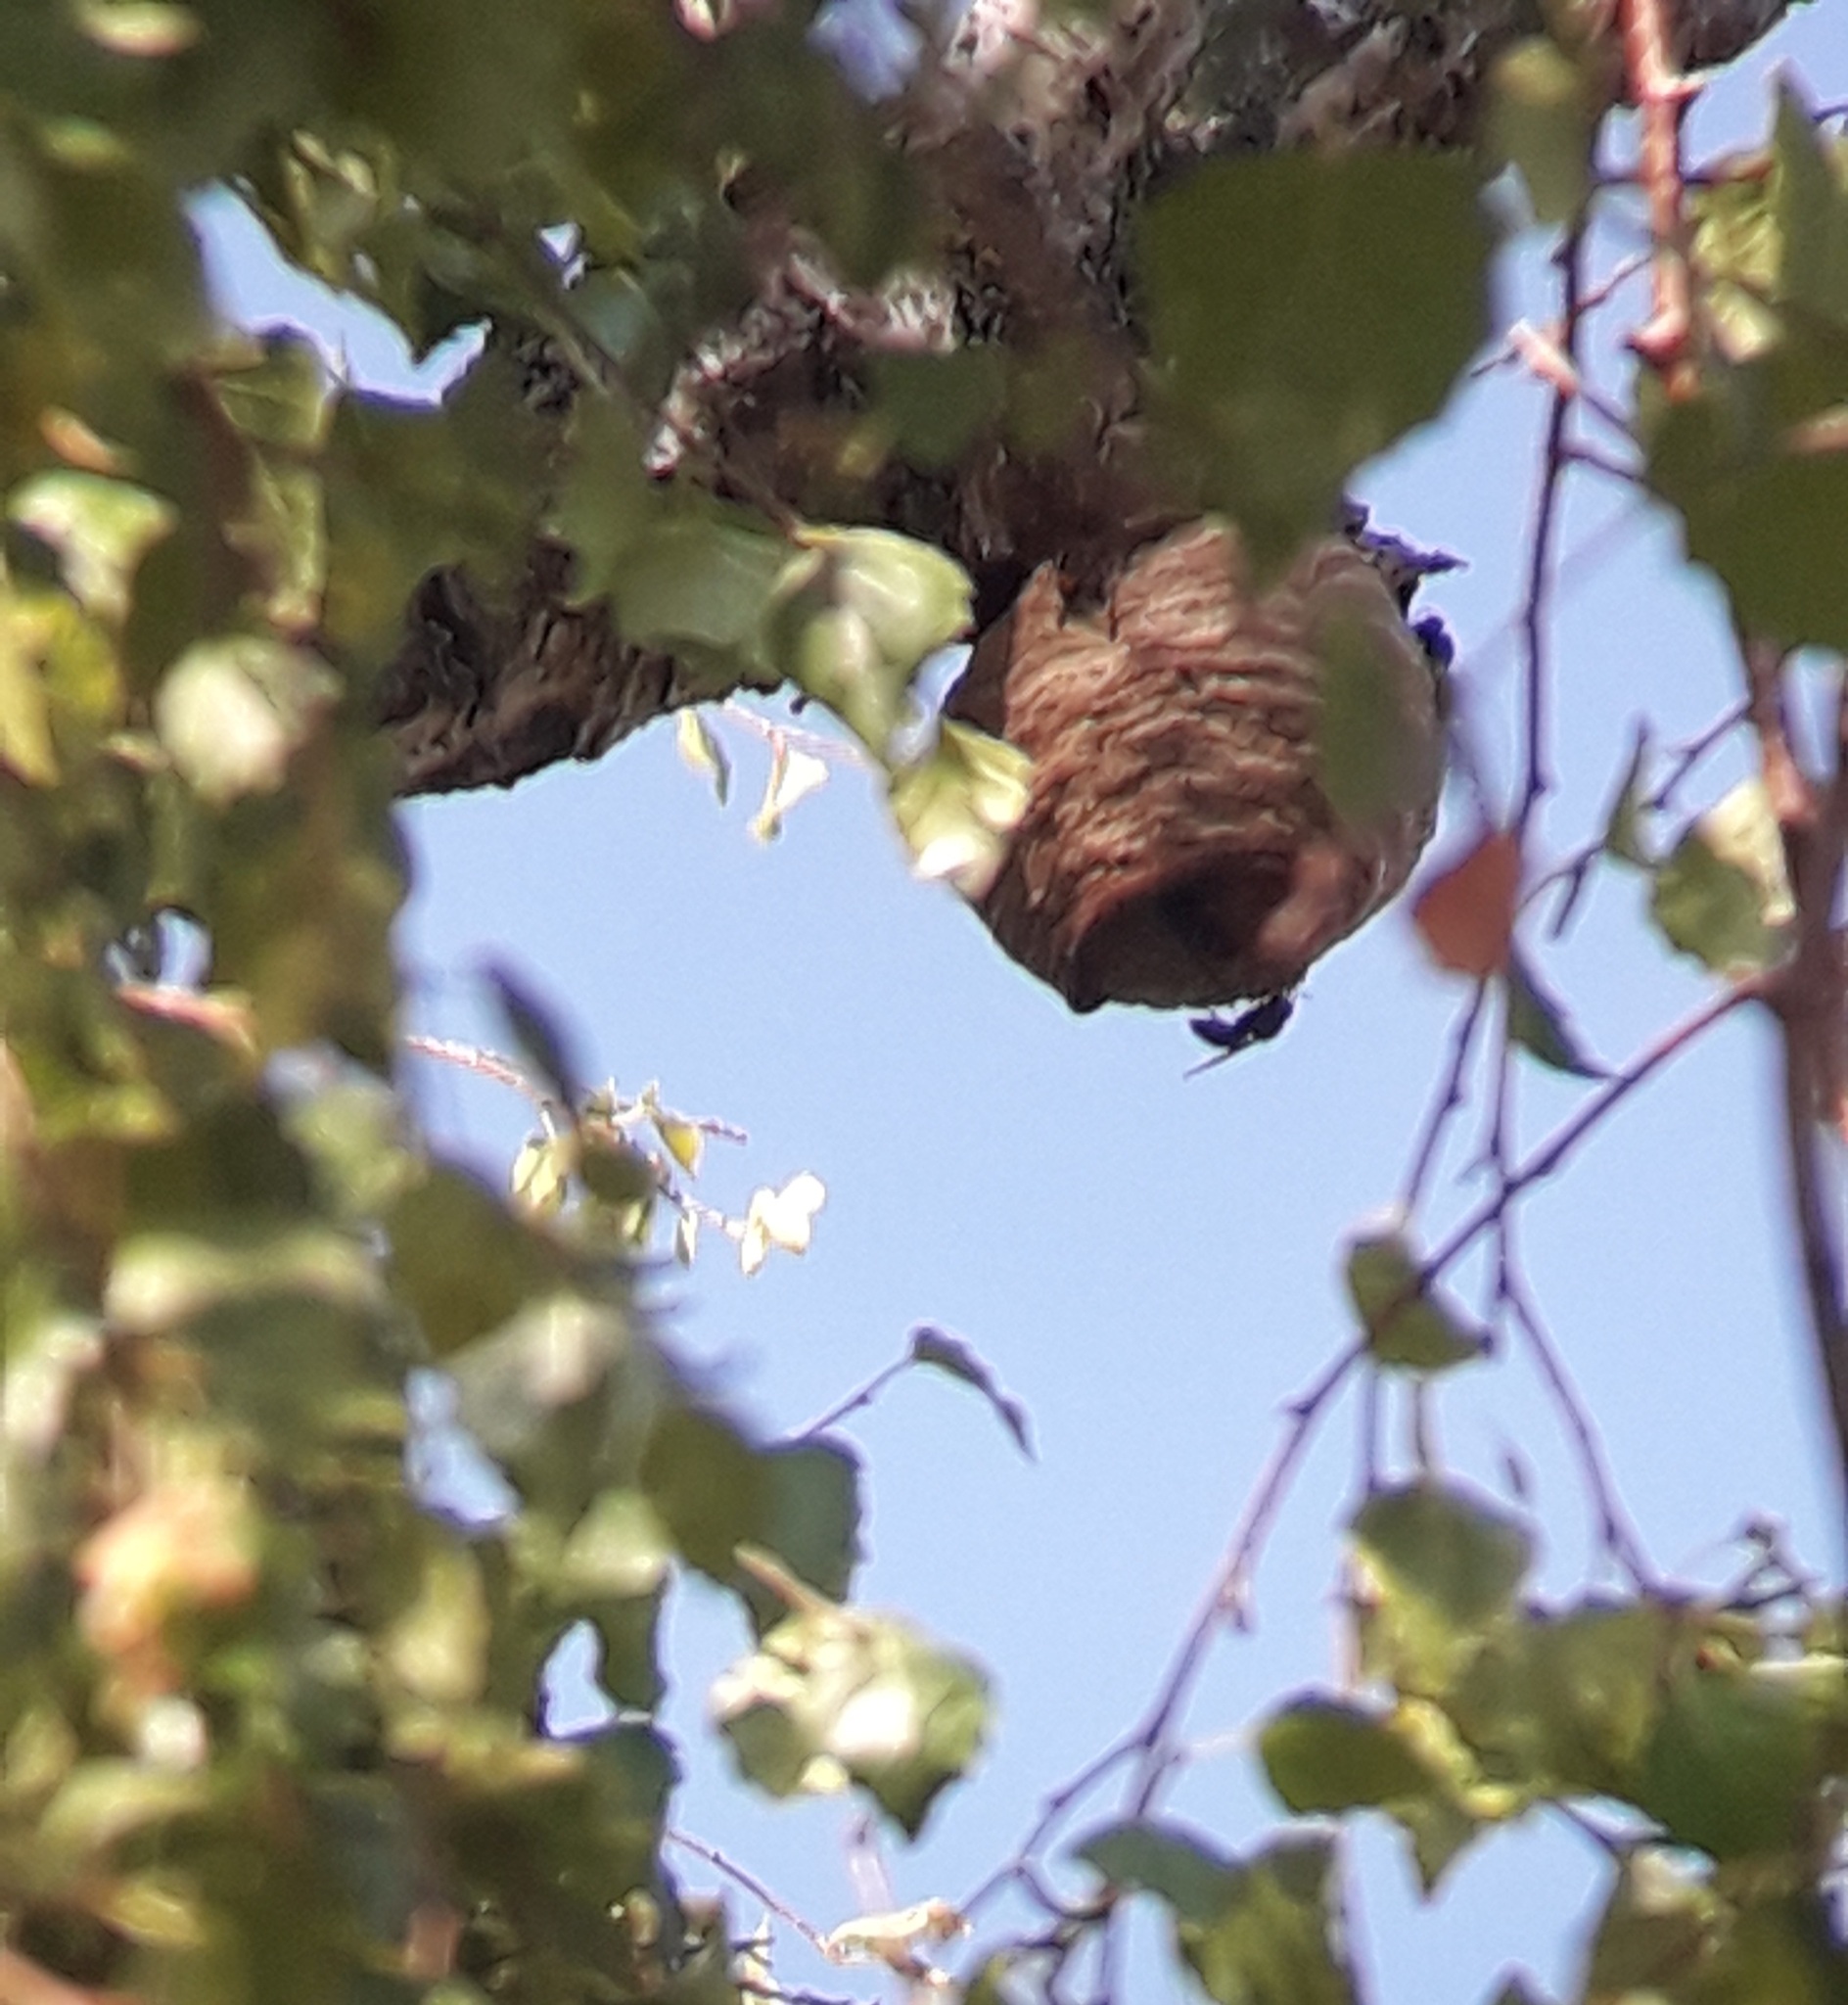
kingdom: Animalia
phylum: Arthropoda
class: Insecta
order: Hymenoptera
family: Vespidae
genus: Vespa
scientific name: Vespa velutina
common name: Asian hornet
